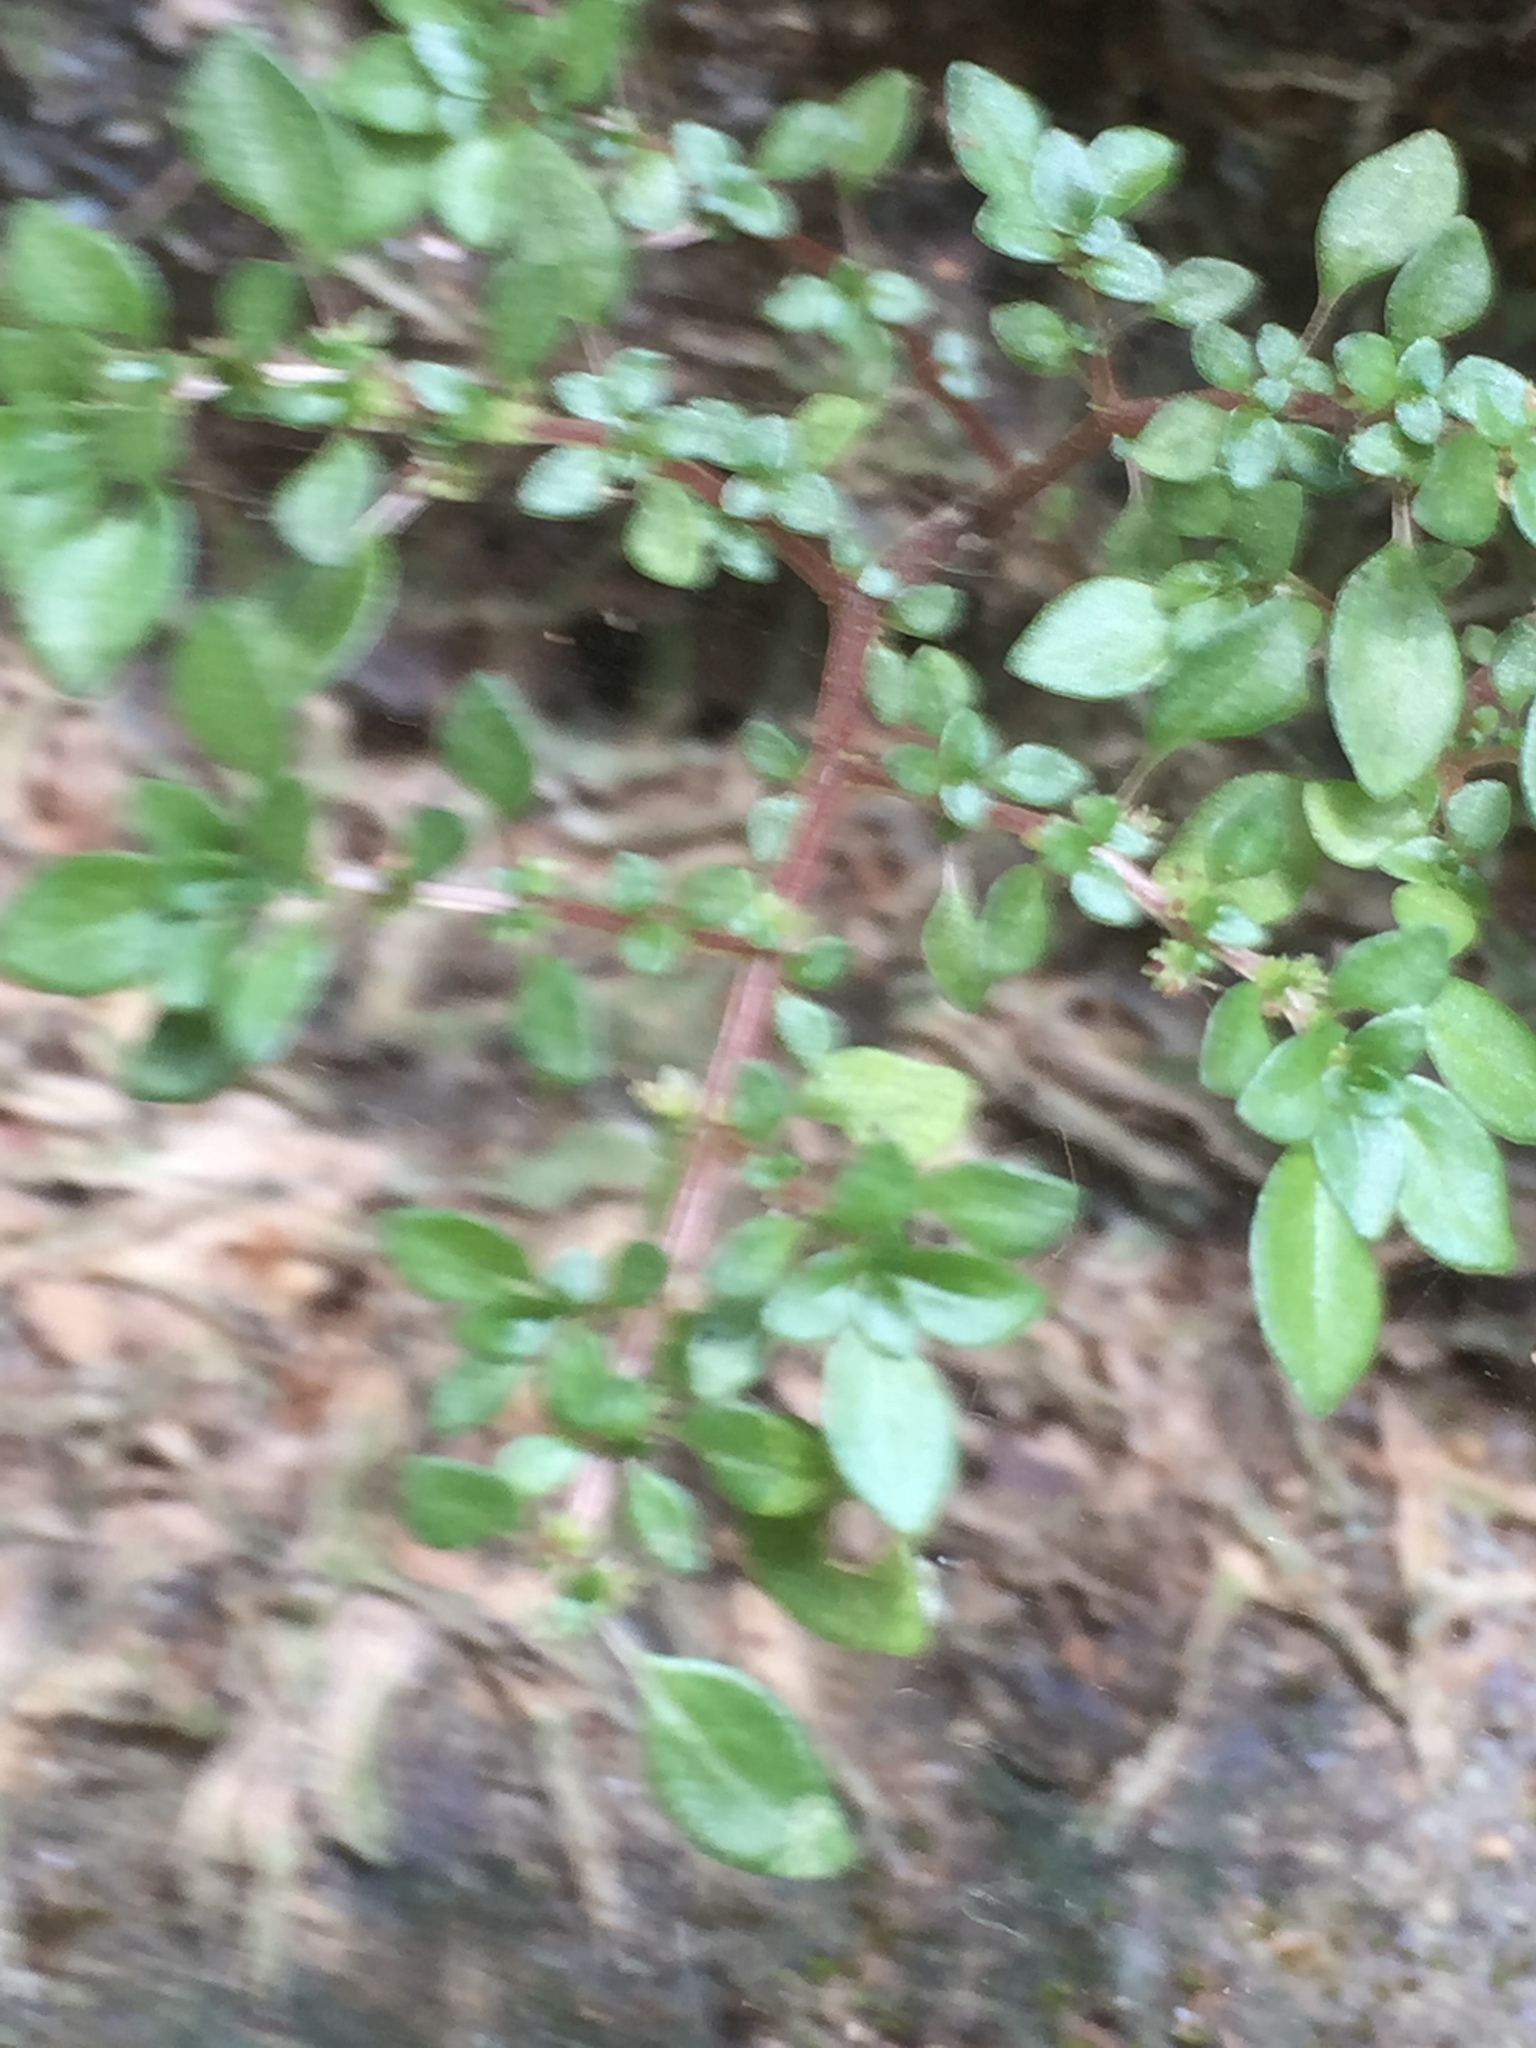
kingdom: Plantae
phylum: Tracheophyta
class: Magnoliopsida
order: Rosales
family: Urticaceae
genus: Pilea
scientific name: Pilea microphylla
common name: Artillery-plant
